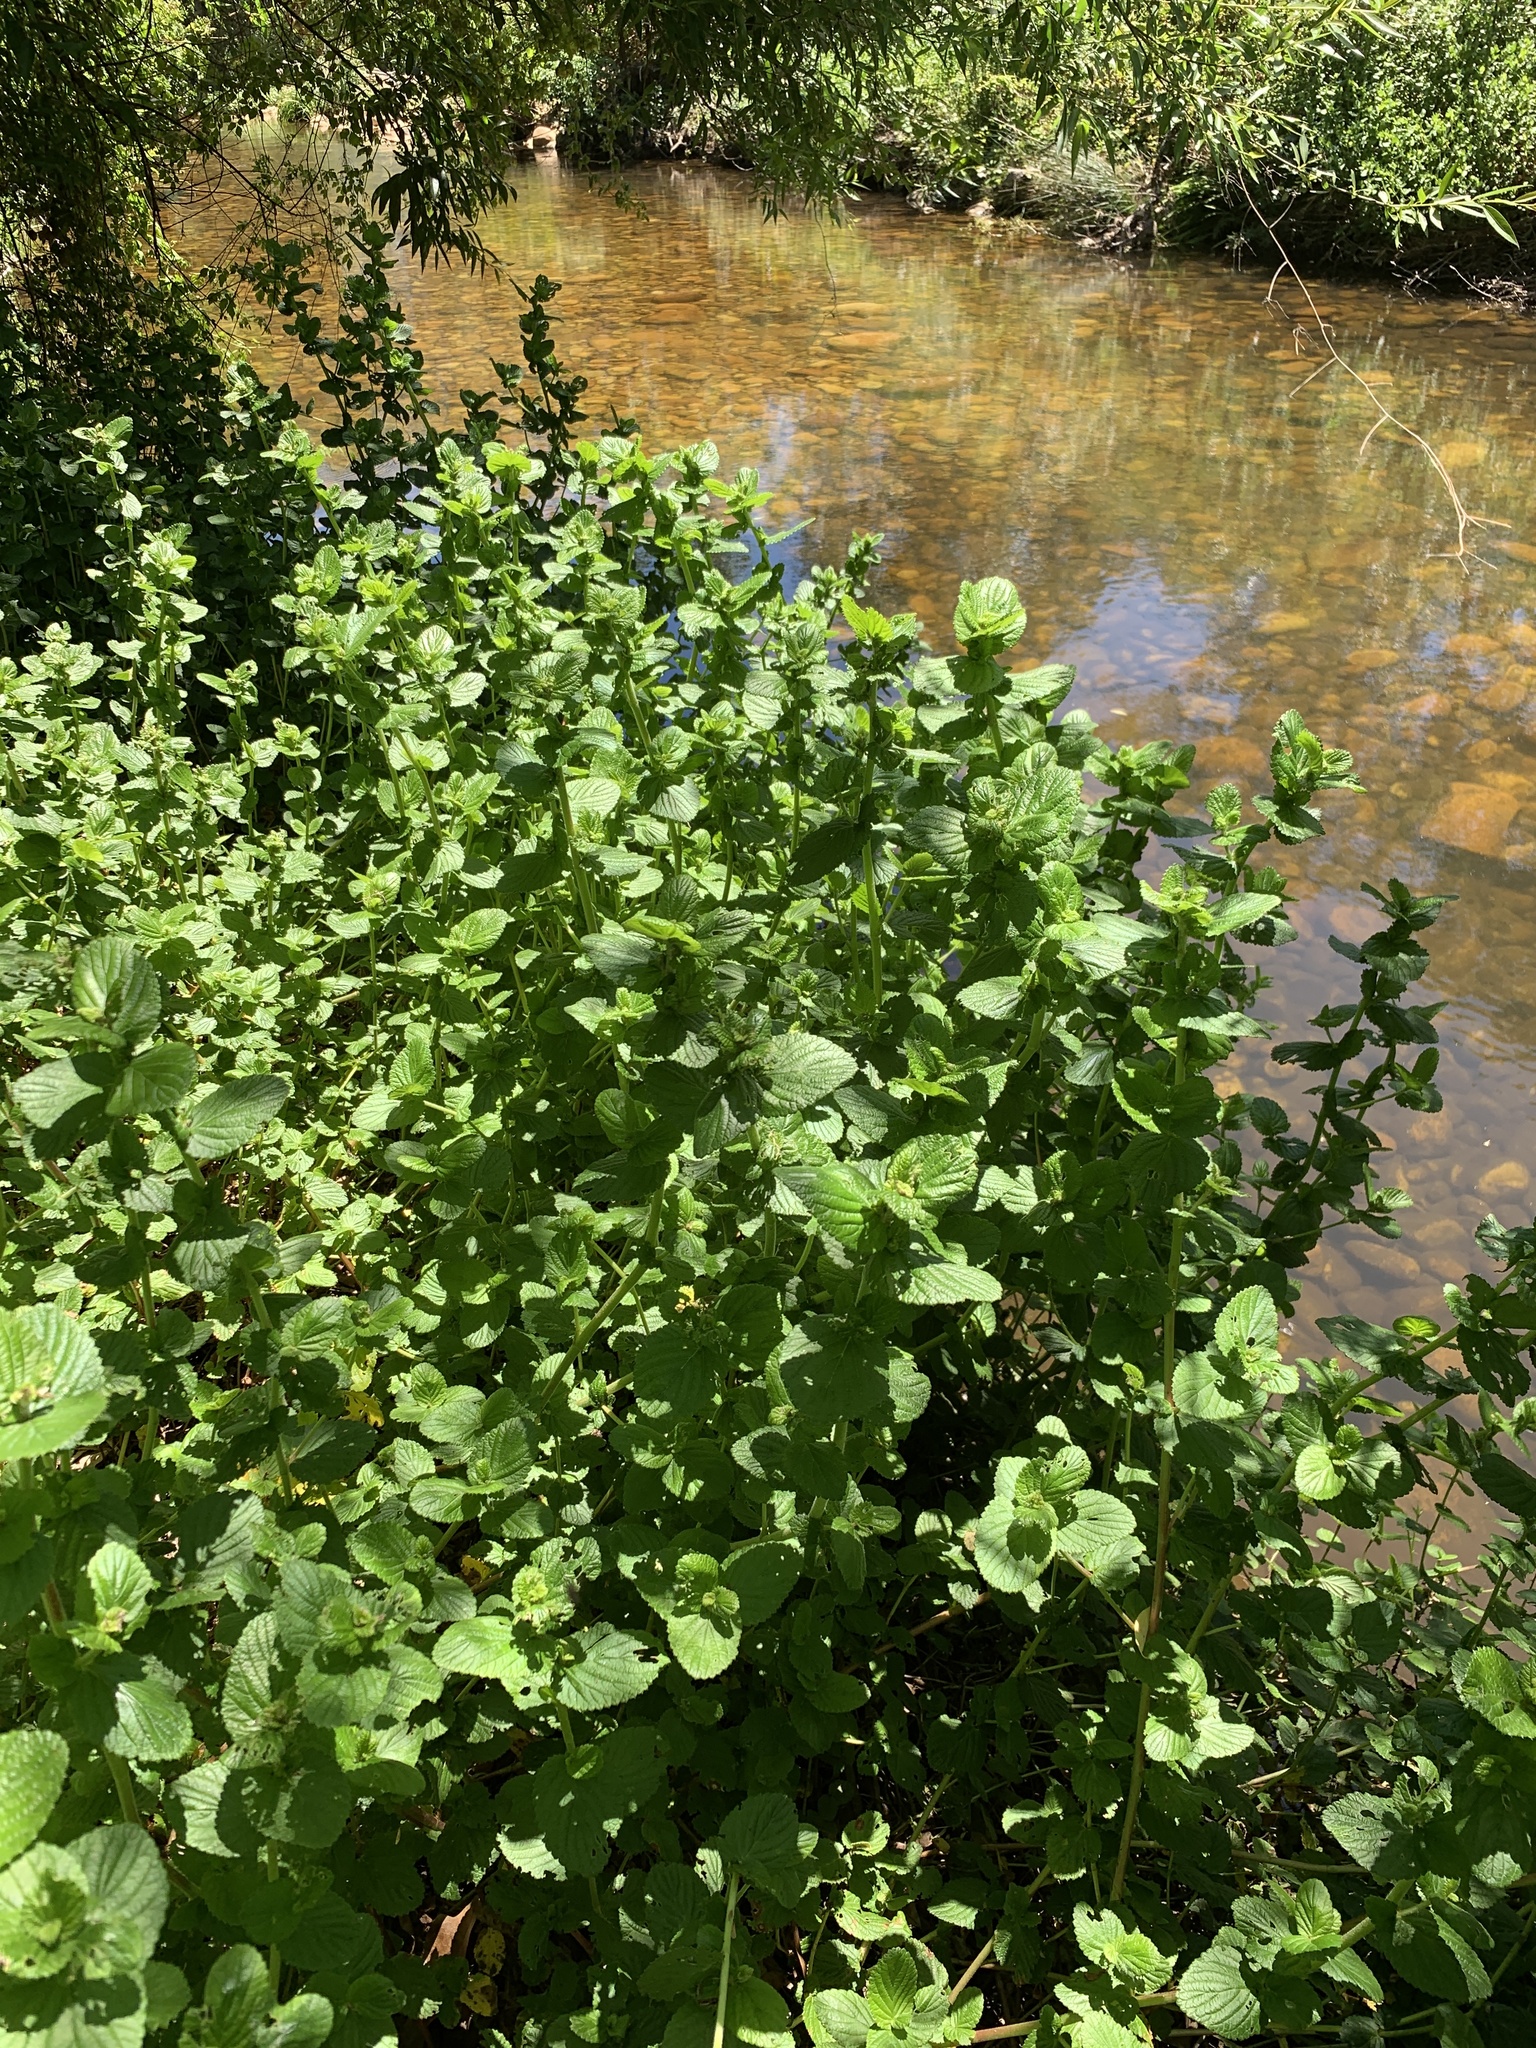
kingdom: Plantae
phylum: Tracheophyta
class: Magnoliopsida
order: Rosales
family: Rosaceae
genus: Cliffortia
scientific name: Cliffortia odorata
